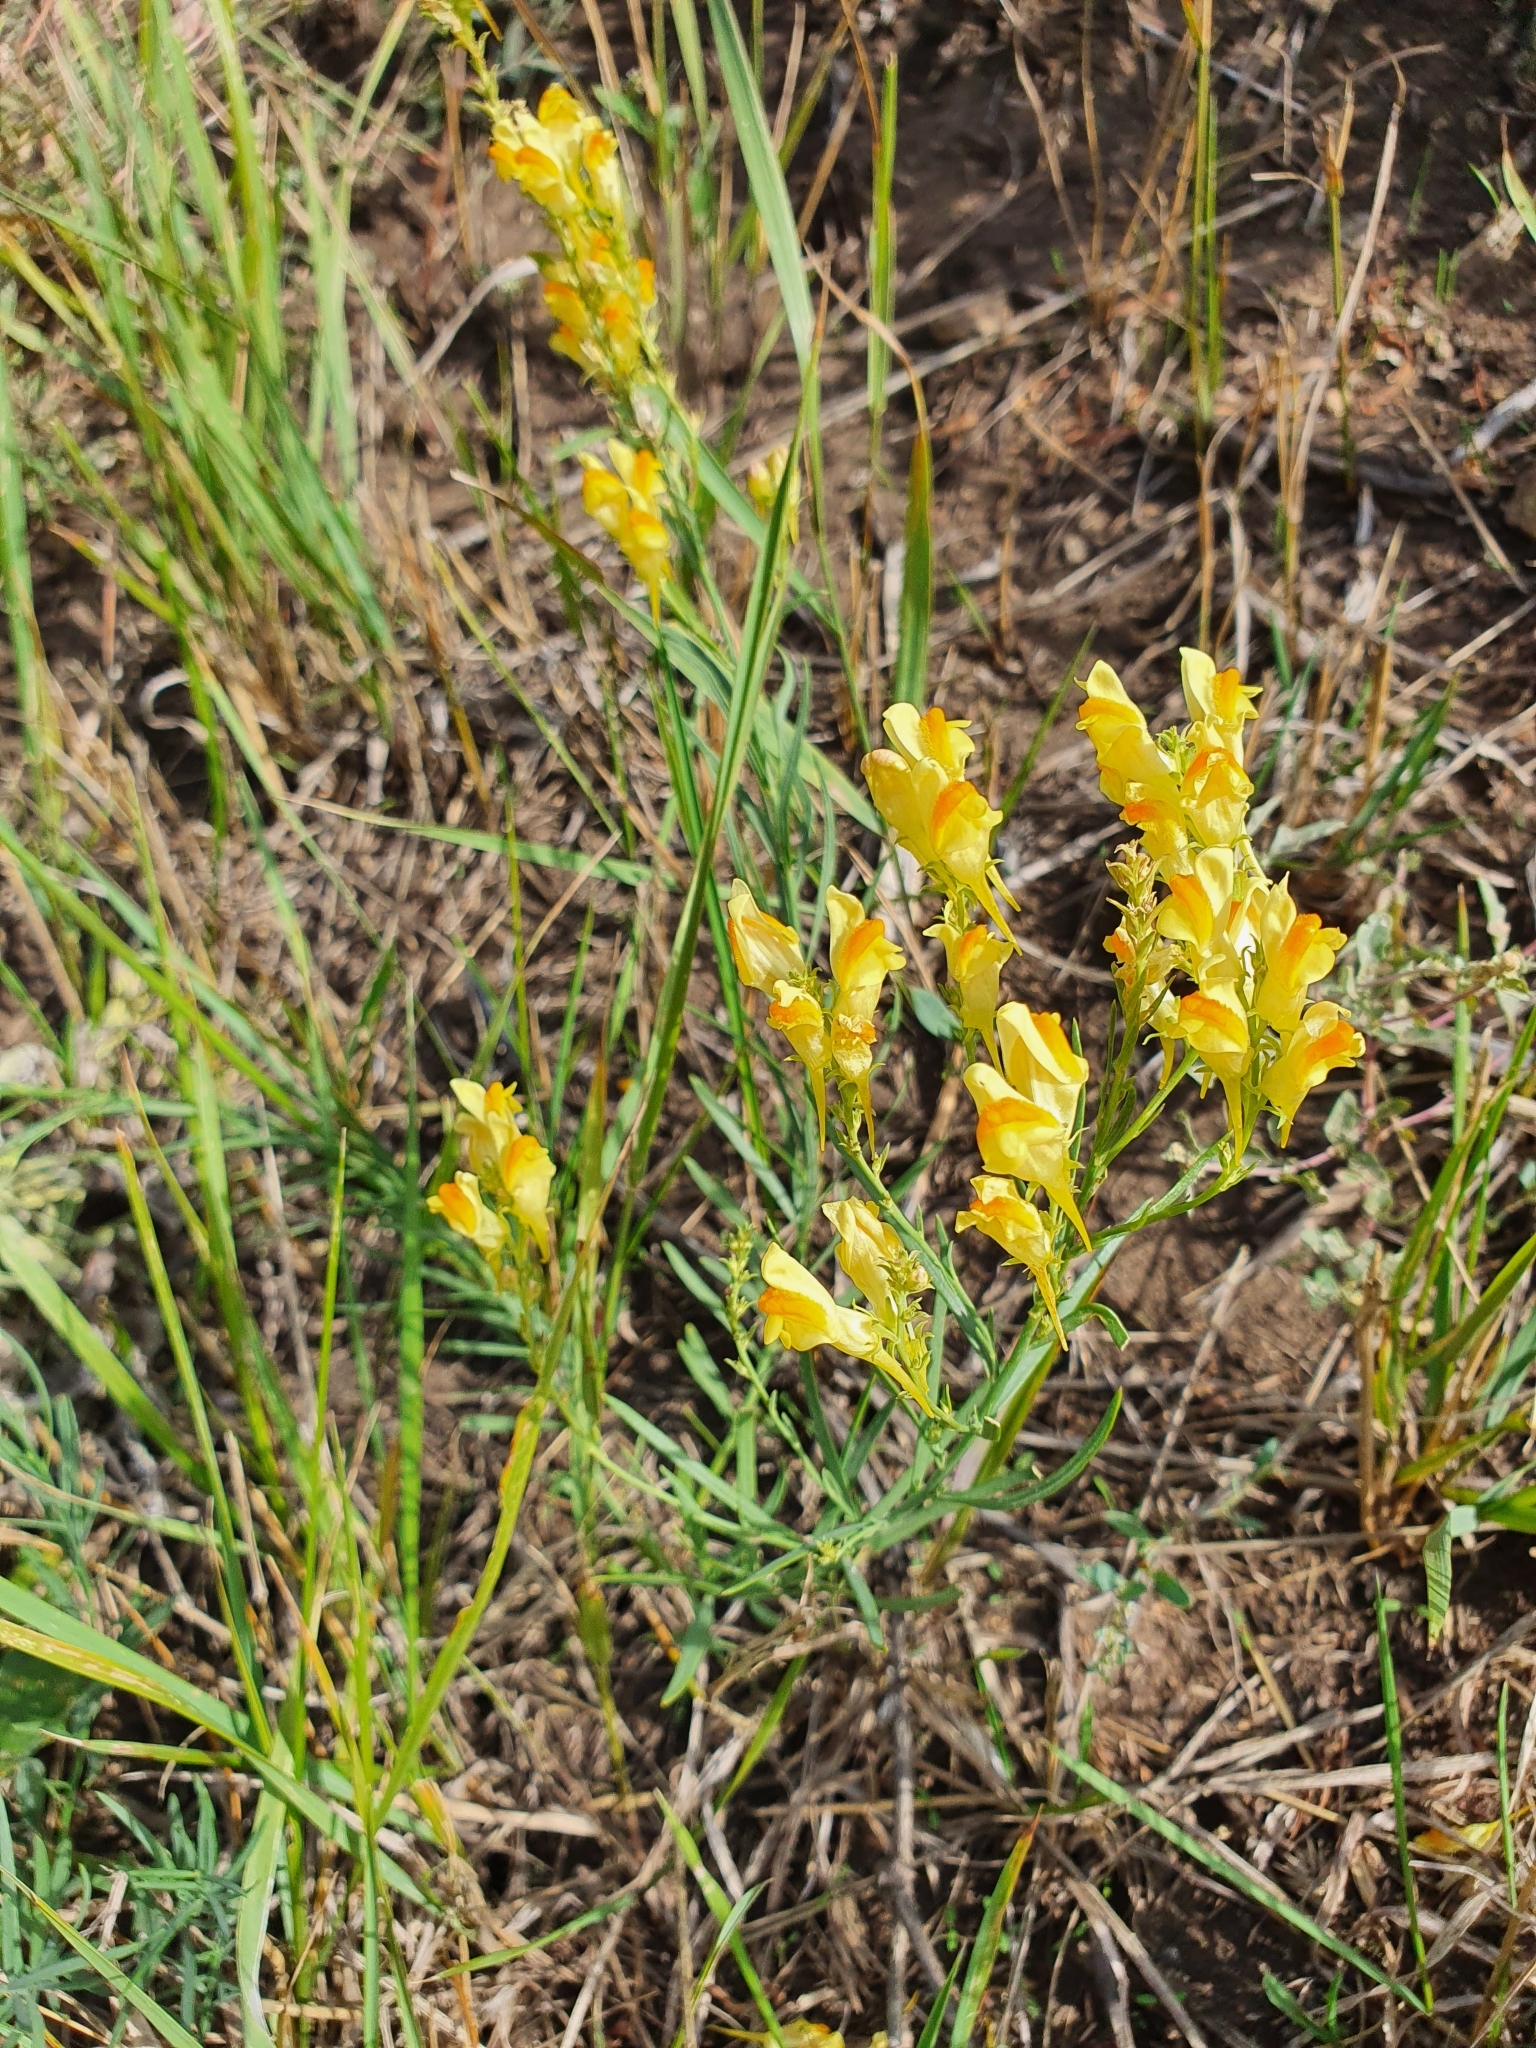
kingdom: Plantae
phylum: Tracheophyta
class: Magnoliopsida
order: Lamiales
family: Plantaginaceae
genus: Linaria
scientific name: Linaria vulgaris
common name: Butter and eggs
